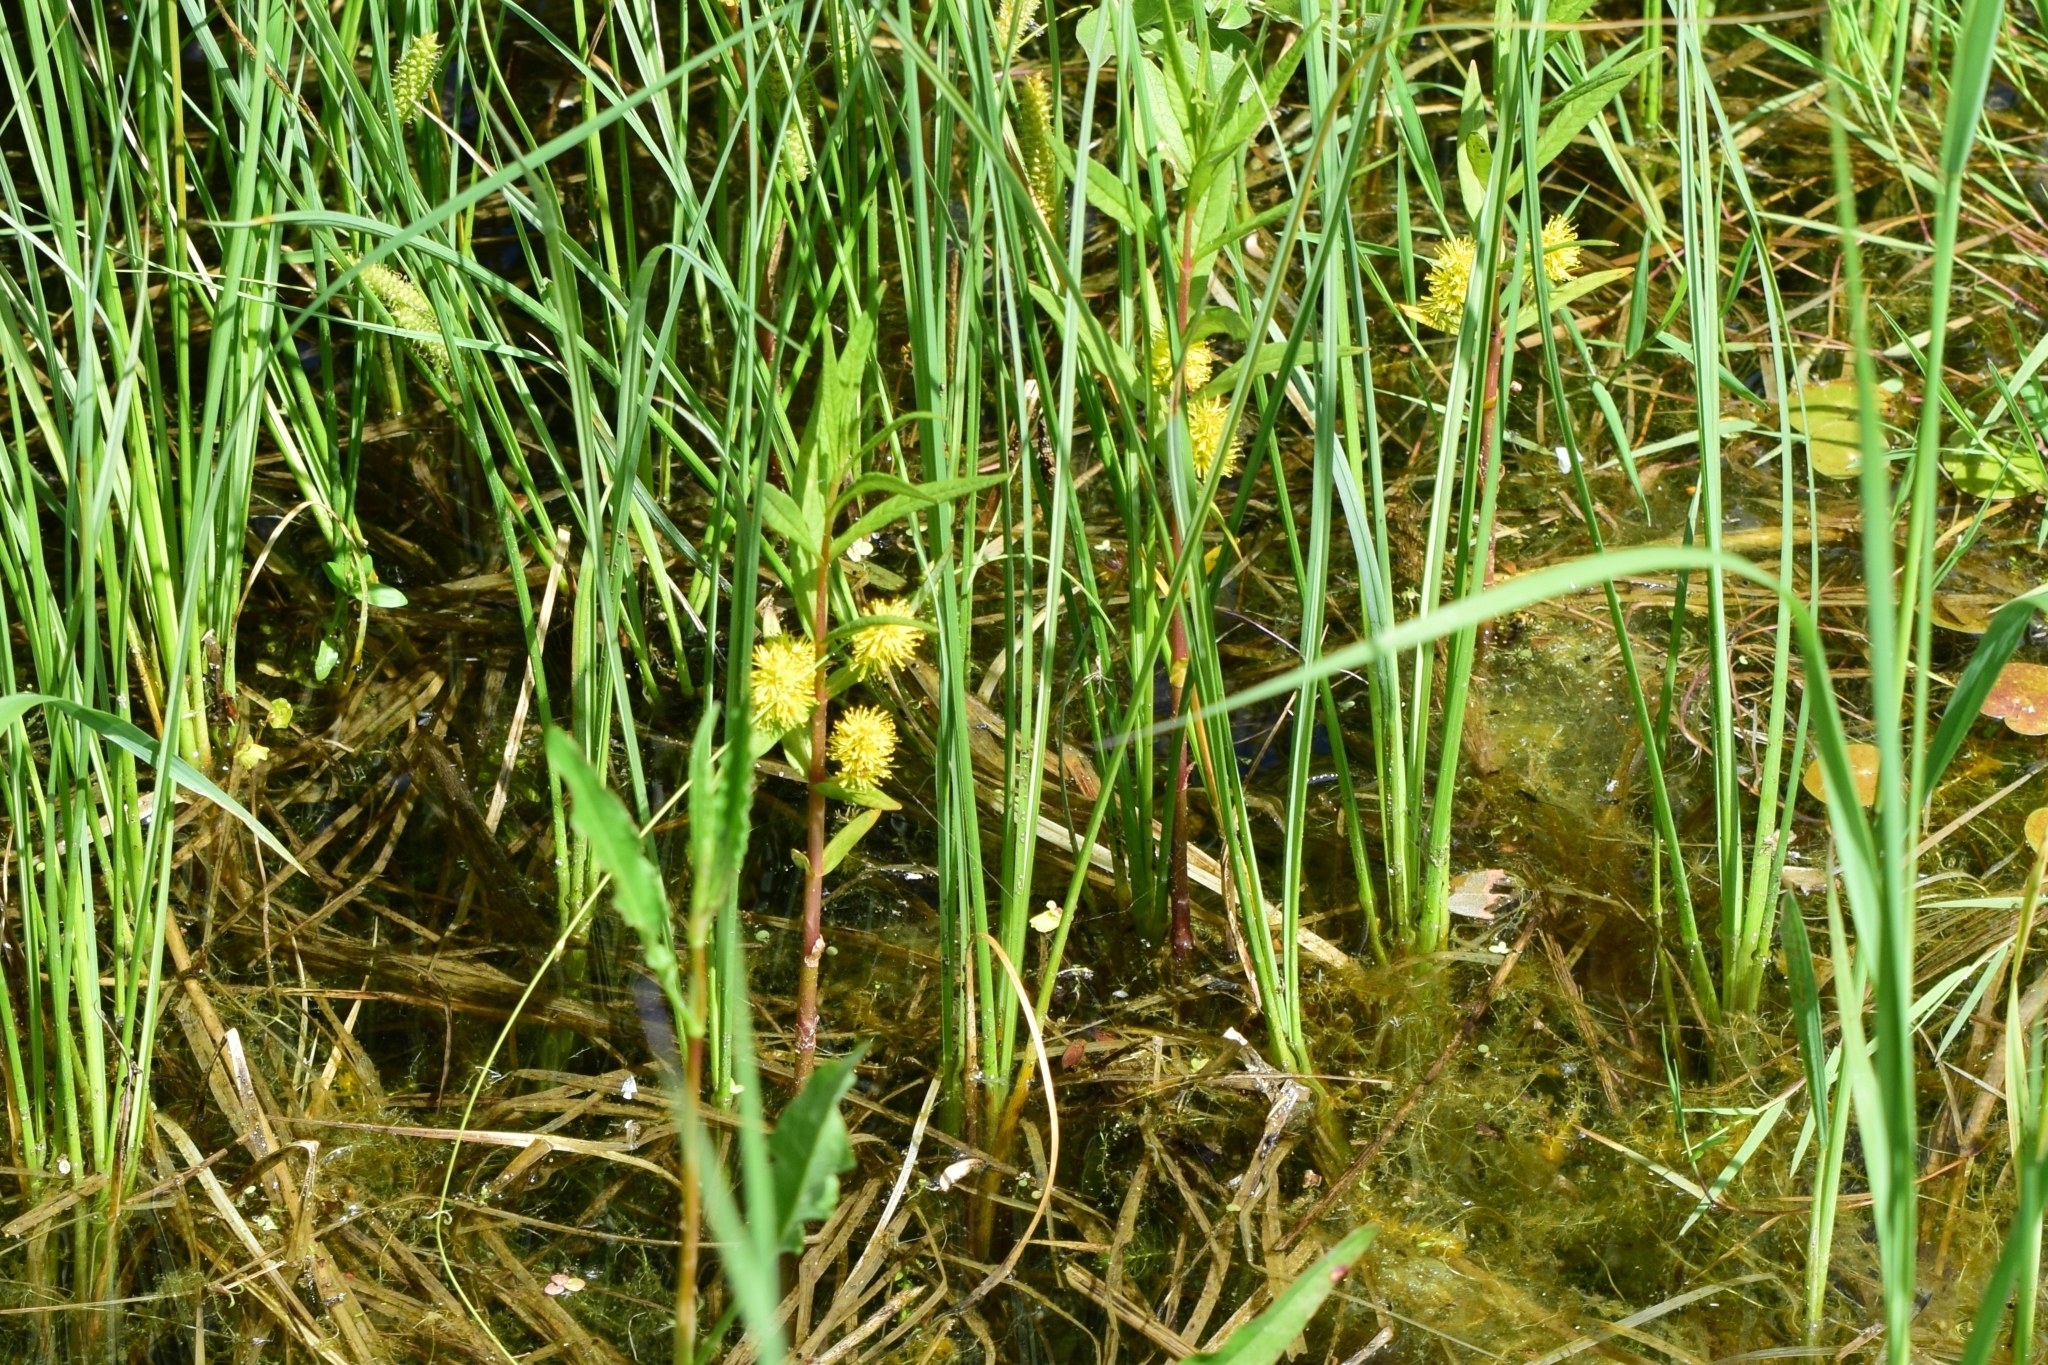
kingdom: Plantae
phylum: Tracheophyta
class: Magnoliopsida
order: Ericales
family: Primulaceae
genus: Lysimachia
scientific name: Lysimachia thyrsiflora
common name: Tufted loosestrife
